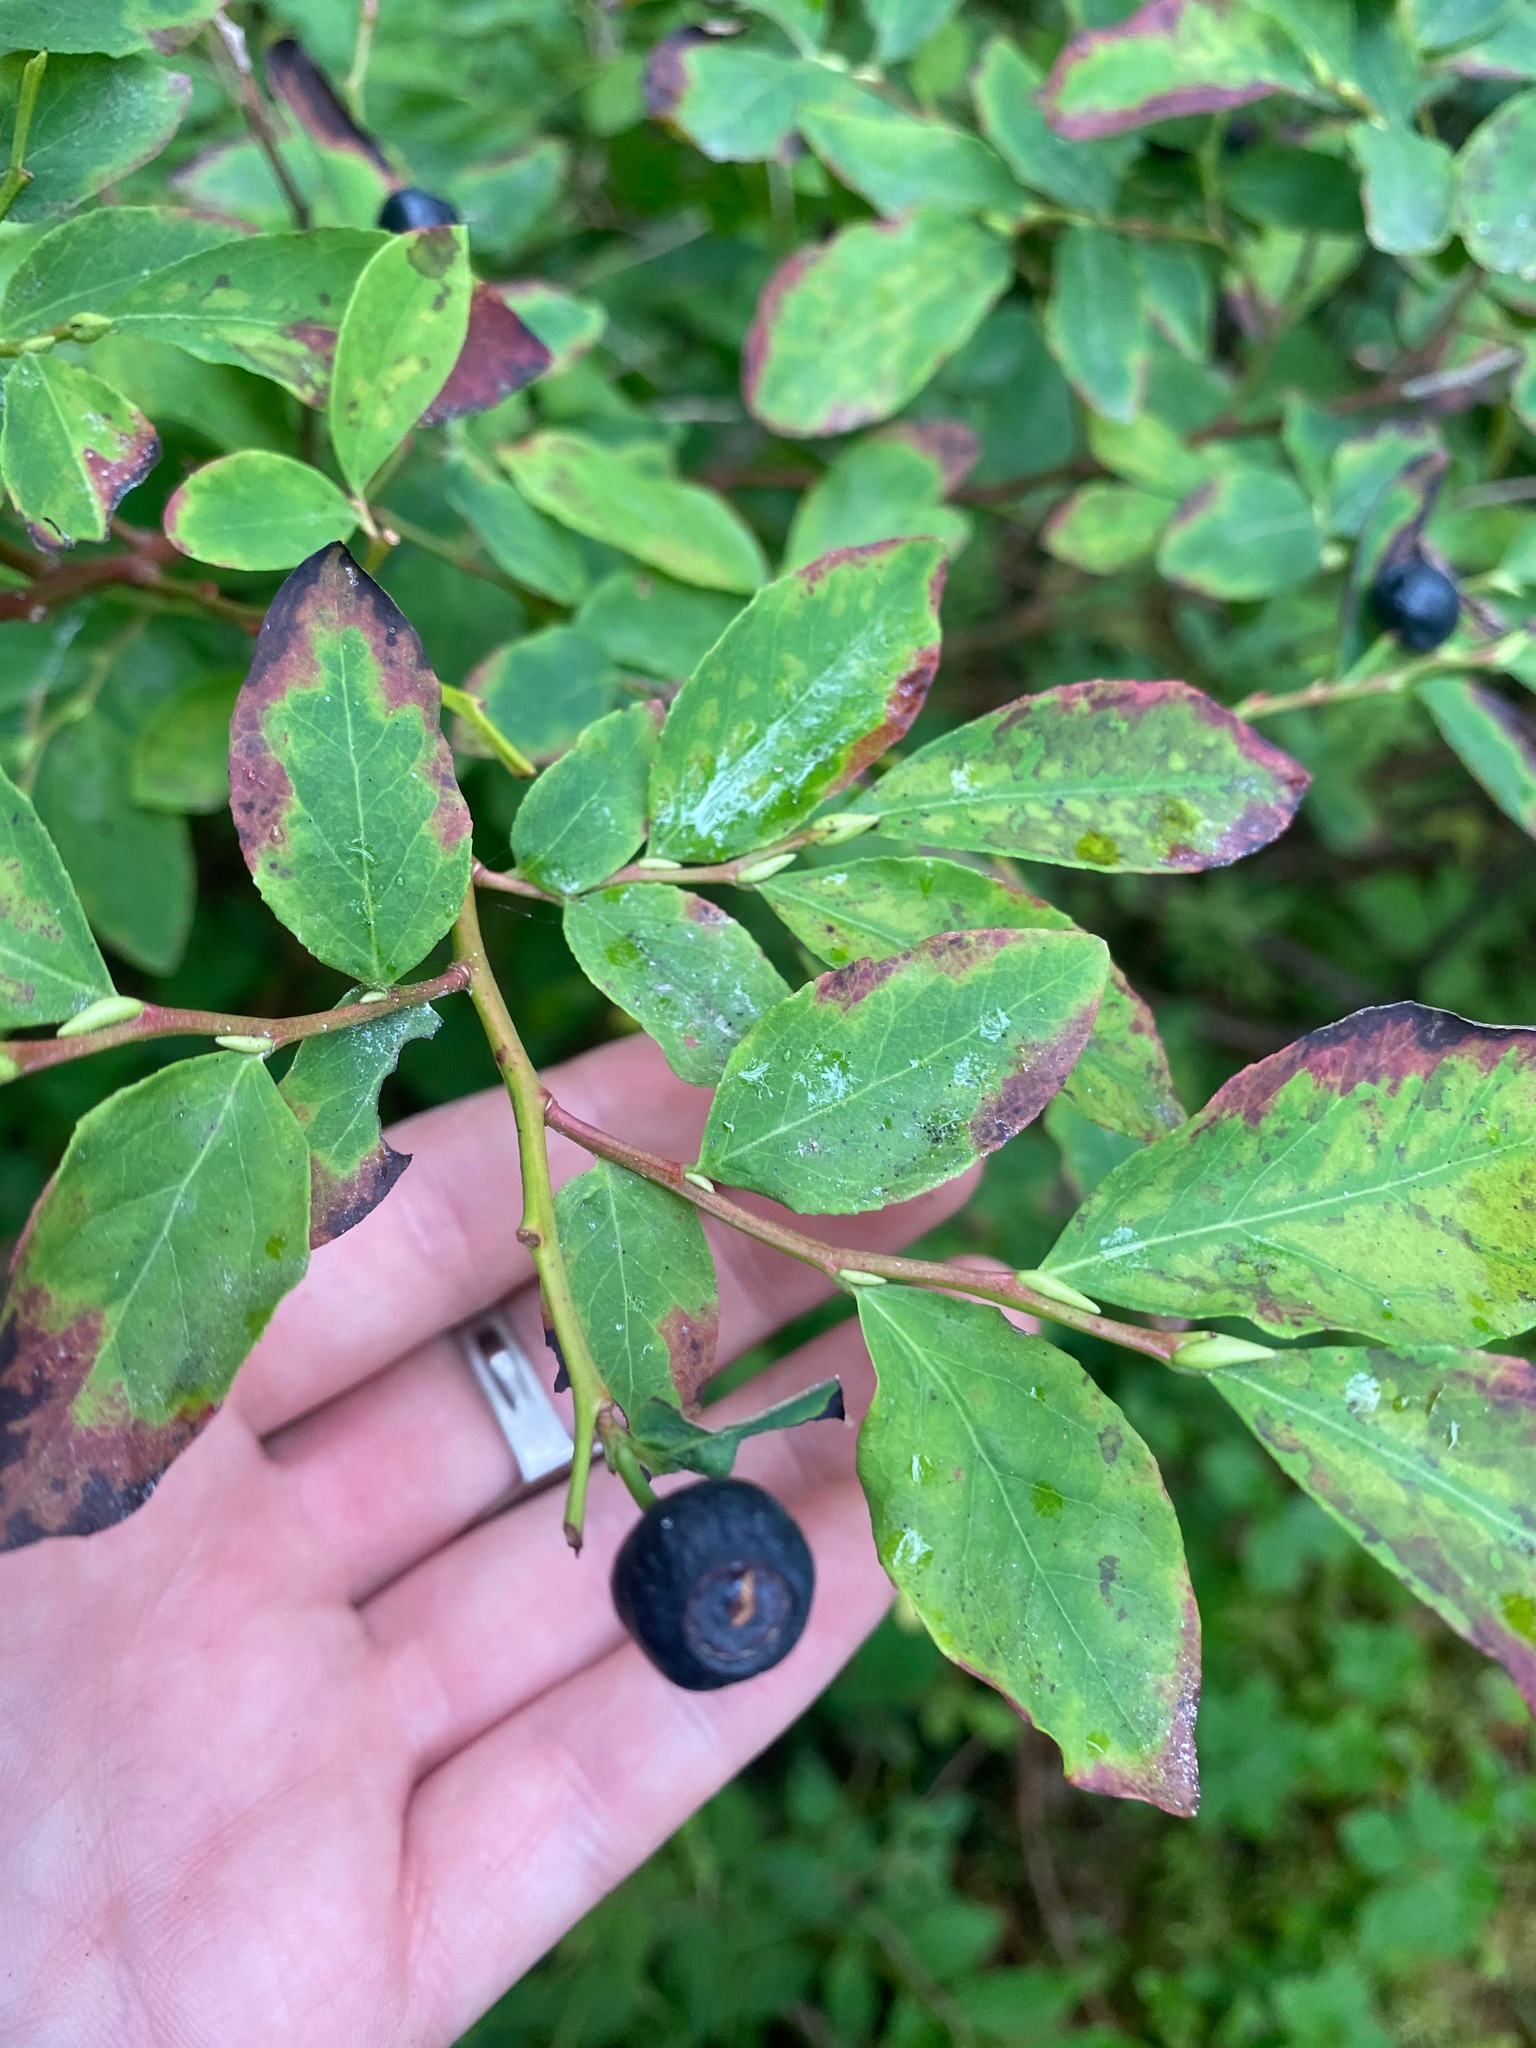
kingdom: Plantae
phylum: Tracheophyta
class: Magnoliopsida
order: Ericales
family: Ericaceae
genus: Vaccinium
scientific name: Vaccinium membranaceum
